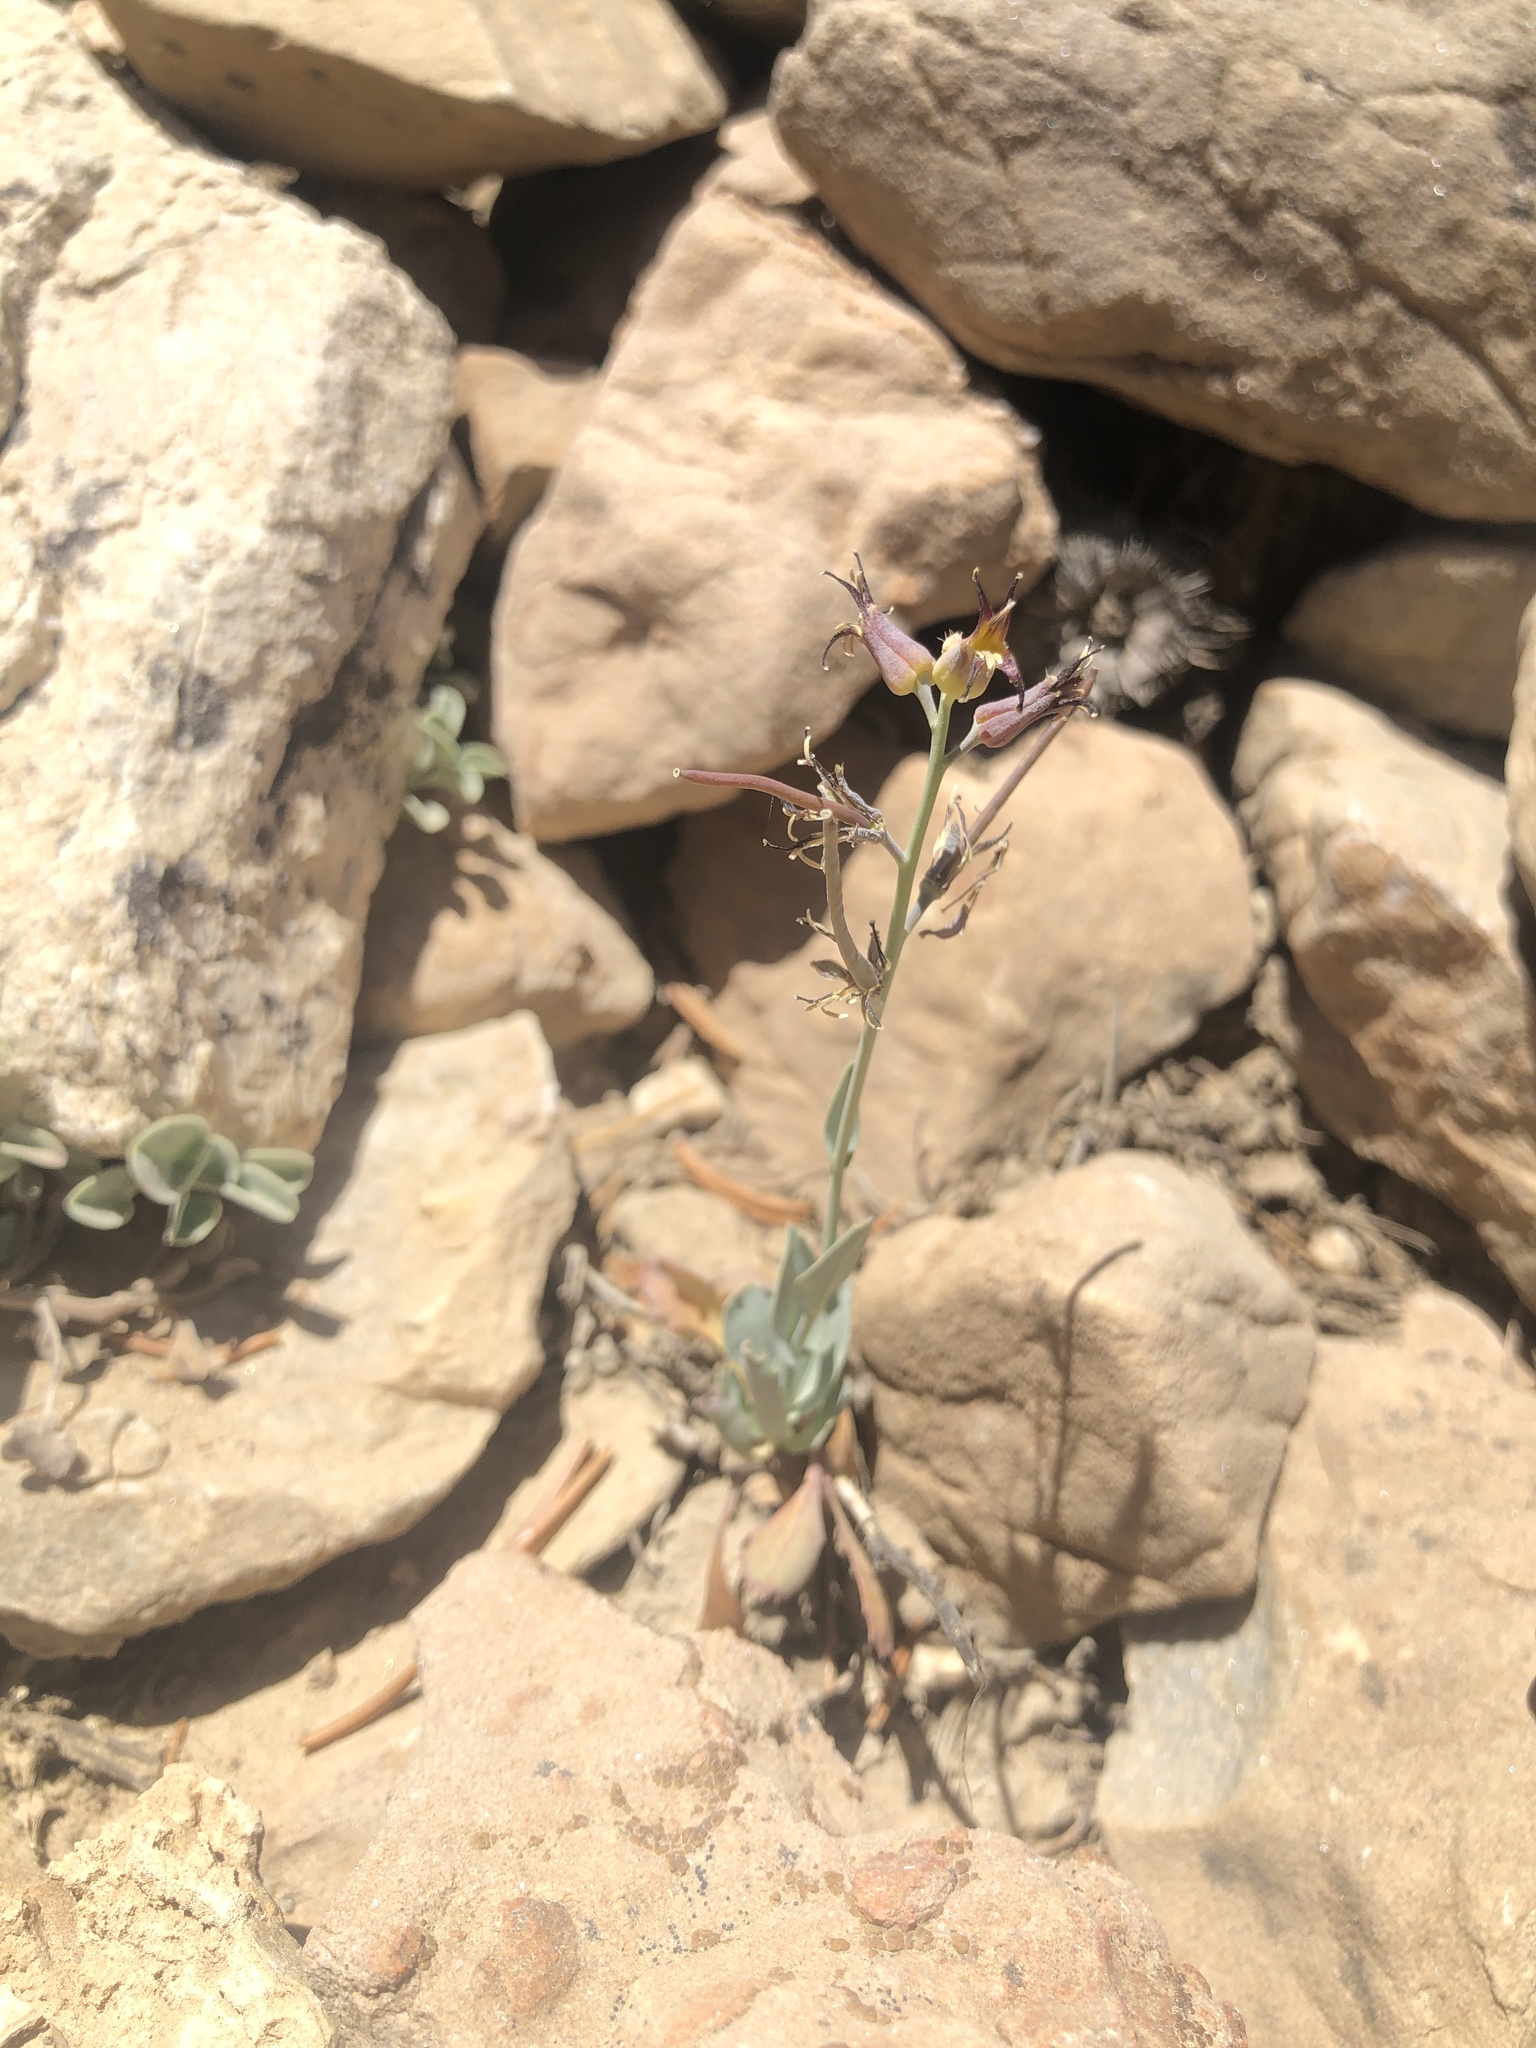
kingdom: Plantae
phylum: Tracheophyta
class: Magnoliopsida
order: Brassicales
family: Brassicaceae
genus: Streptanthus
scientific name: Streptanthus cordatus
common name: Heart-leaf jewel-flower
